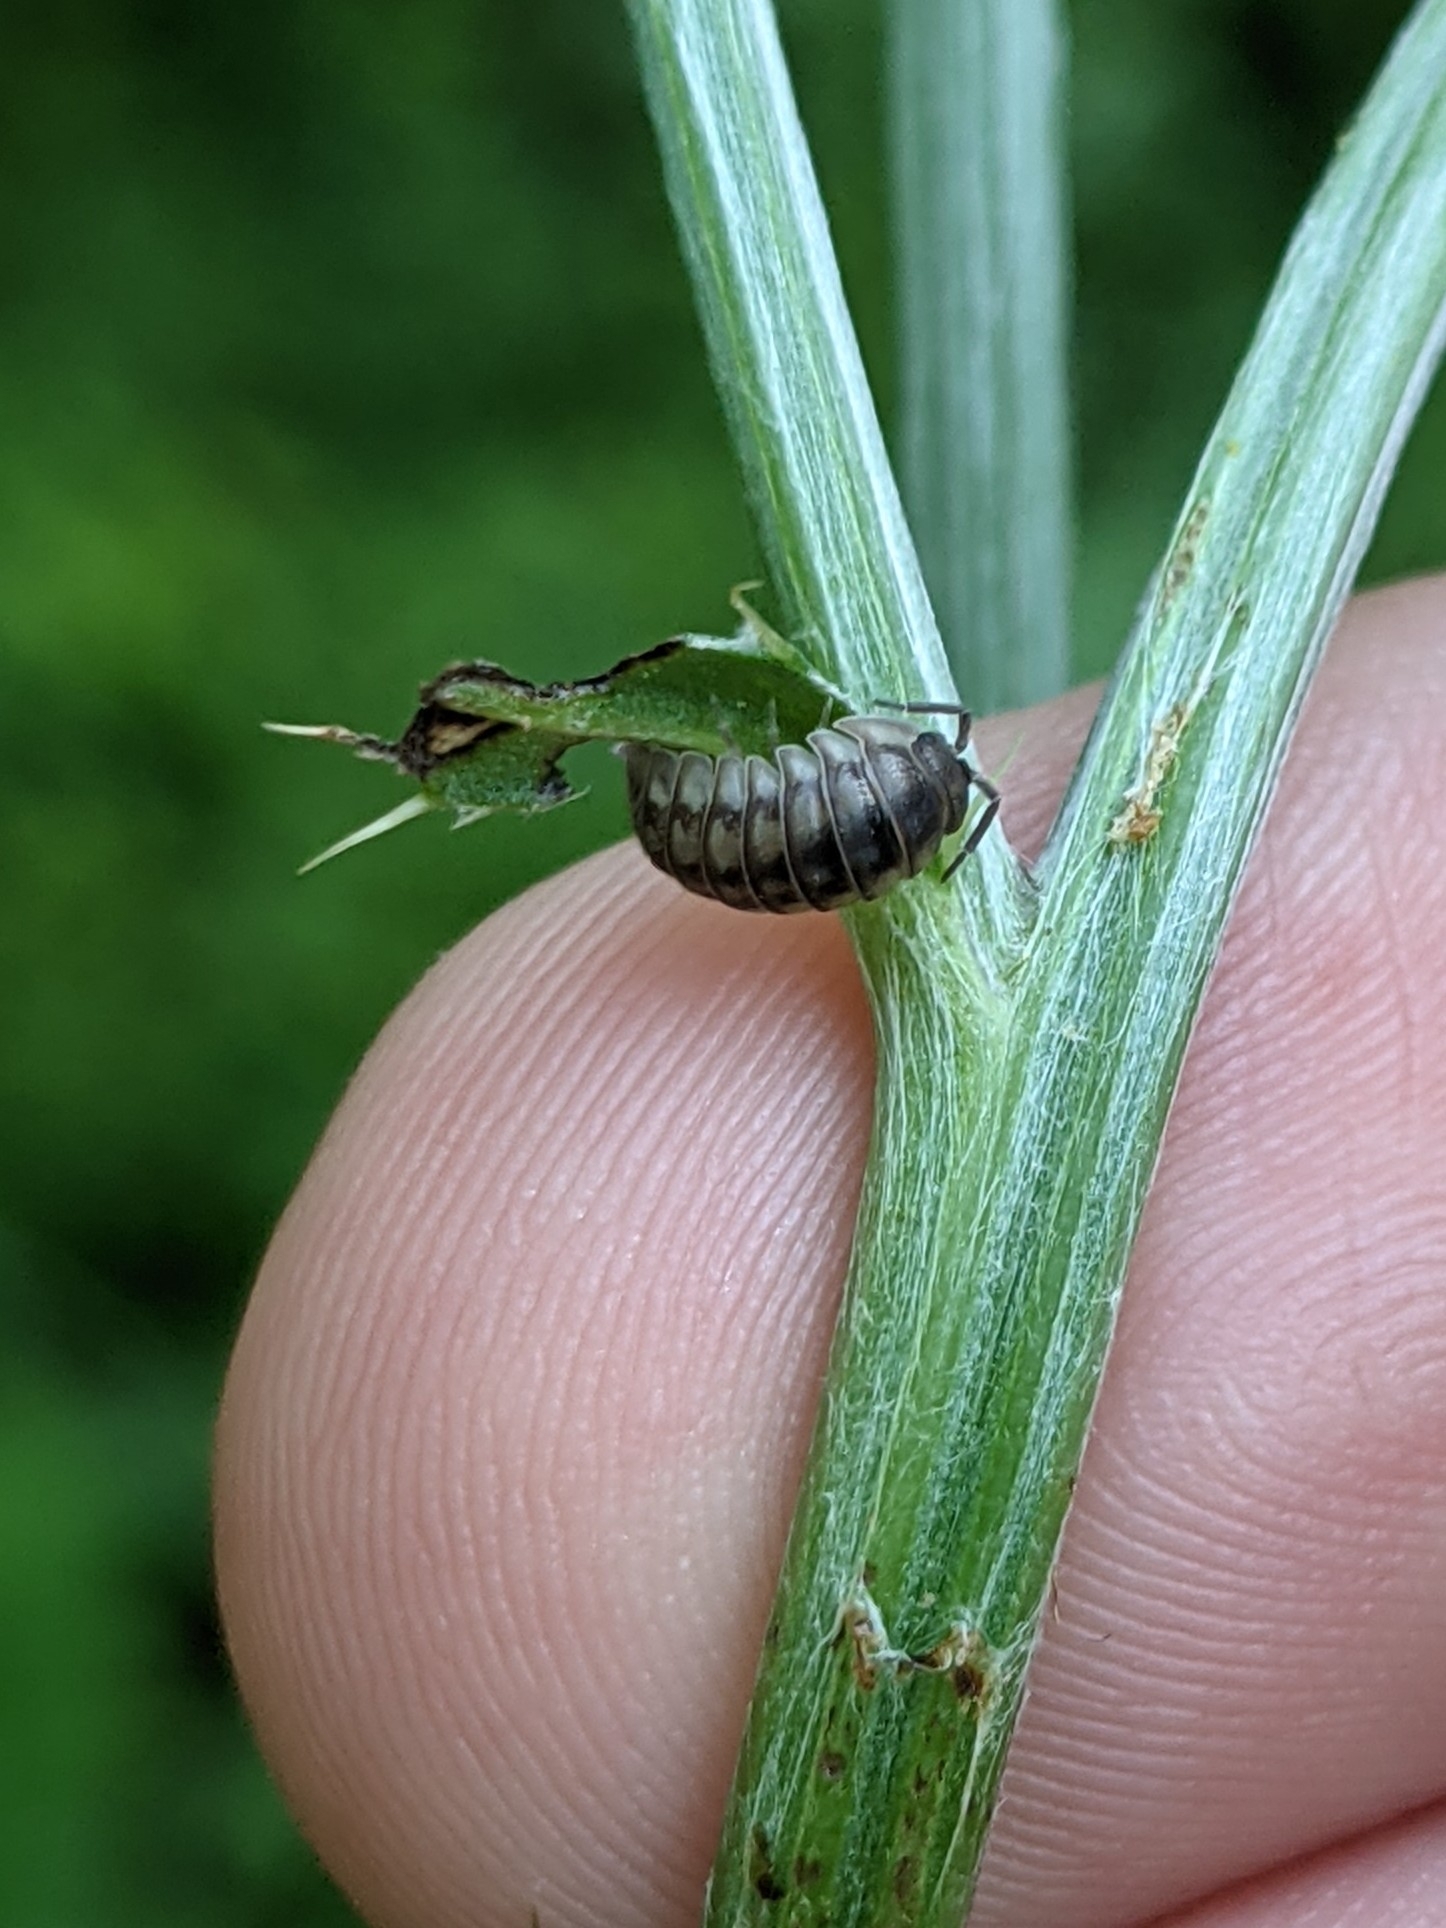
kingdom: Animalia
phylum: Arthropoda
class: Malacostraca
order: Isopoda
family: Armadillidiidae
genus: Armadillidium
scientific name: Armadillidium nasatum
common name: Isopod
